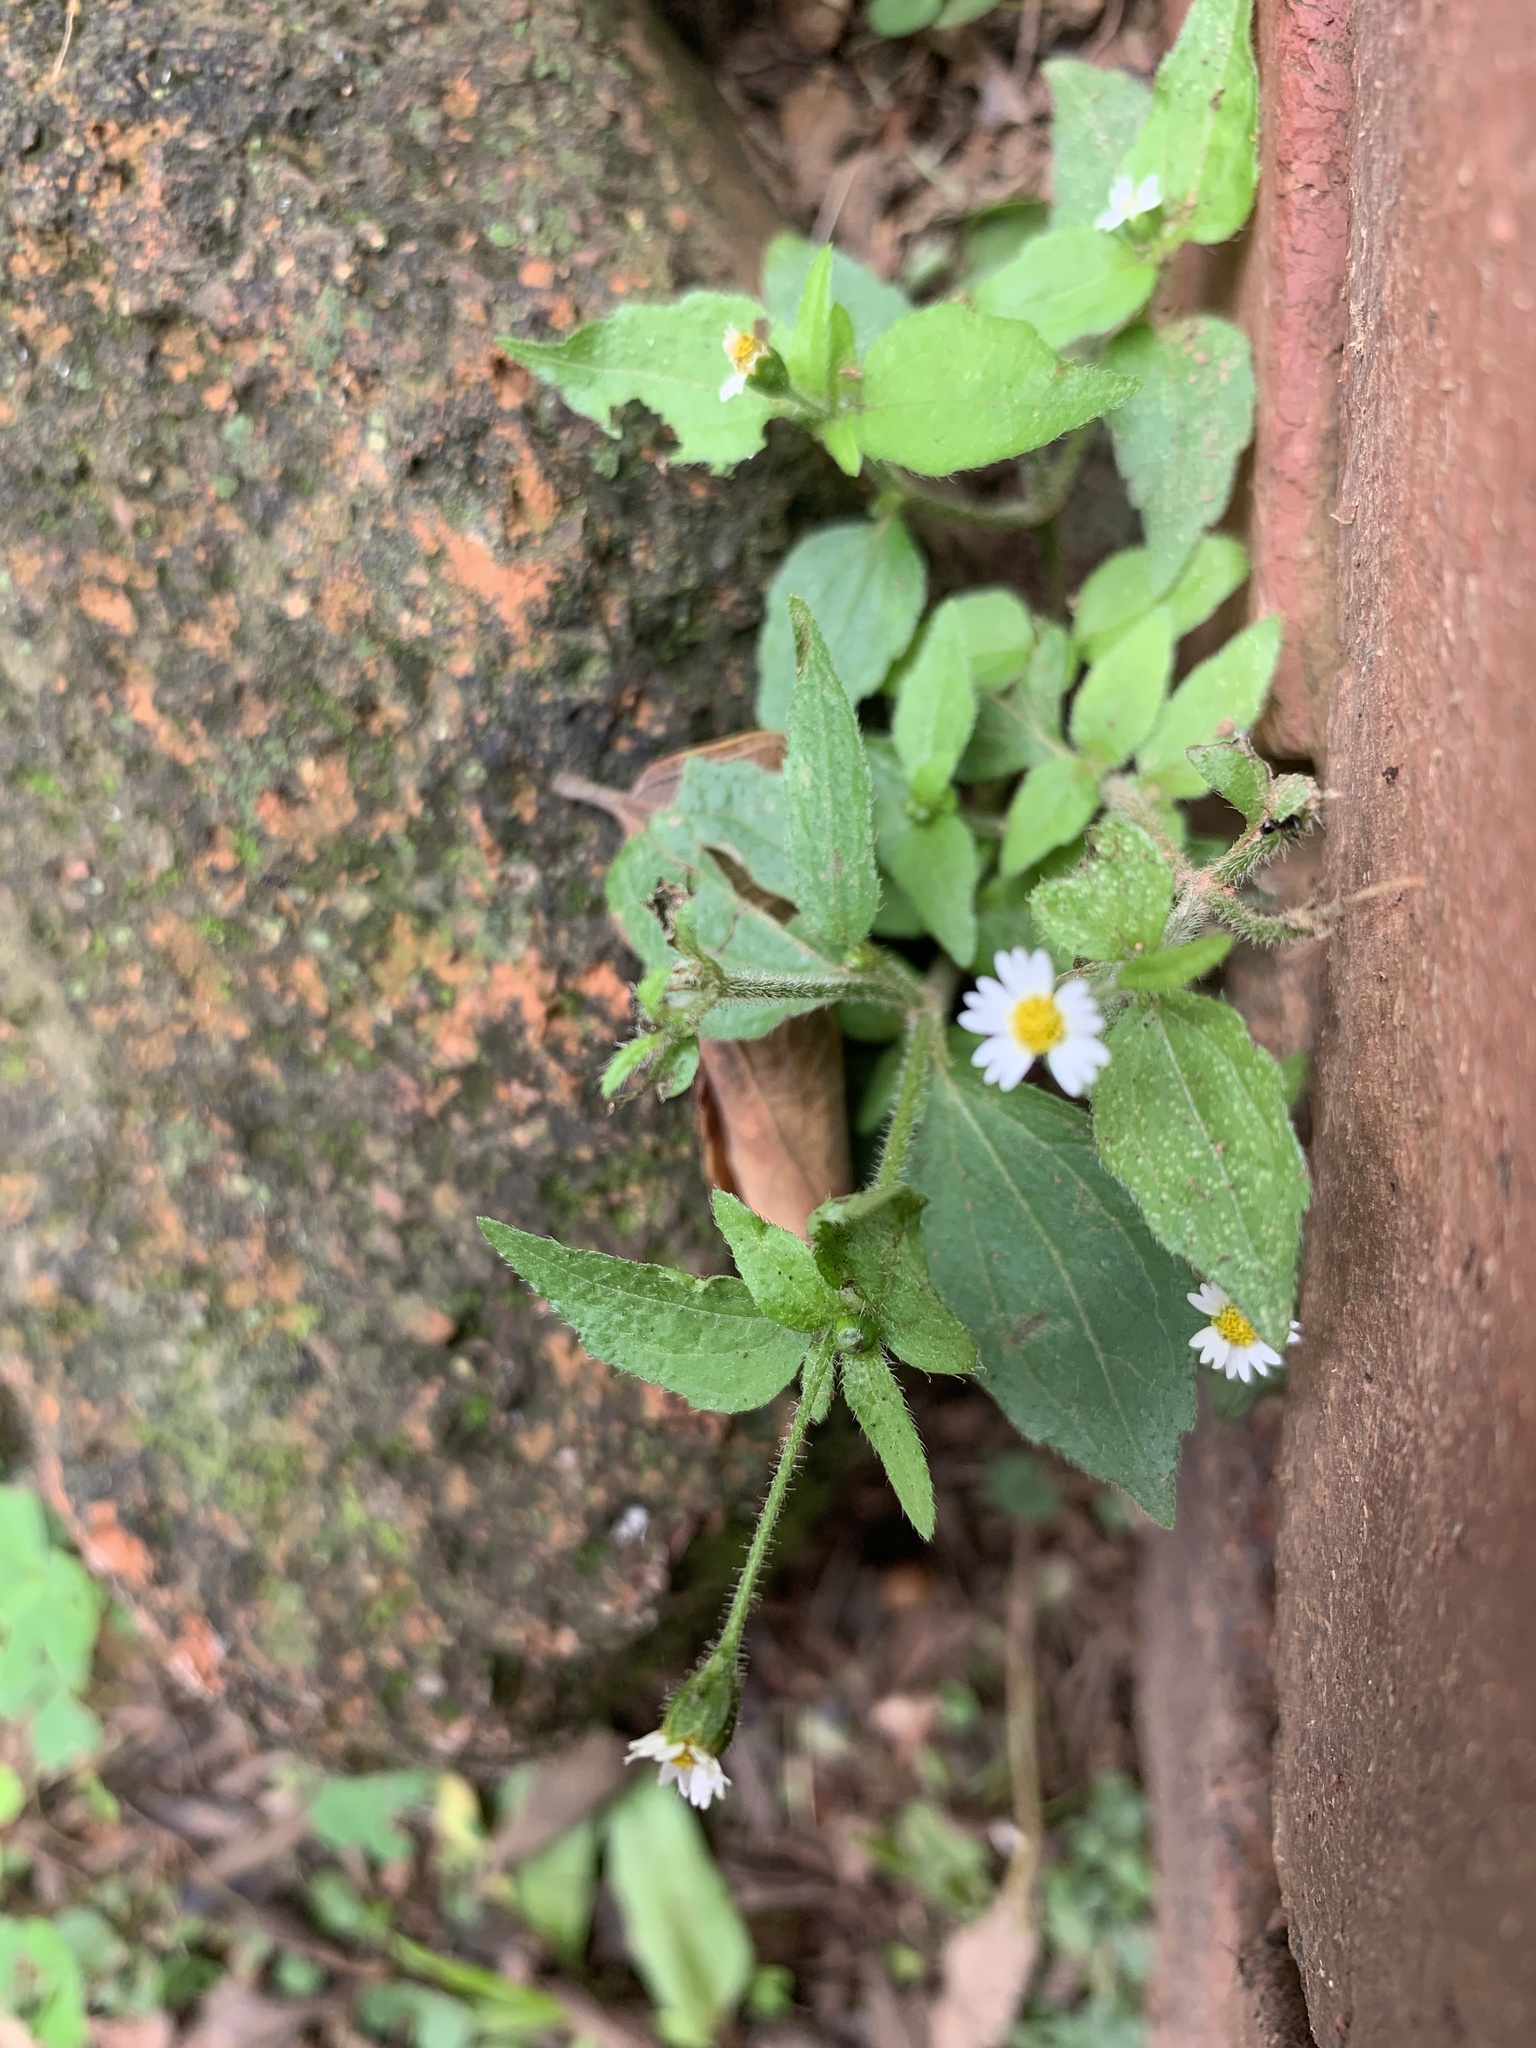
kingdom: Plantae
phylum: Tracheophyta
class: Magnoliopsida
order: Asterales
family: Asteraceae
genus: Galinsoga
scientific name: Galinsoga quadriradiata
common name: Shaggy soldier
